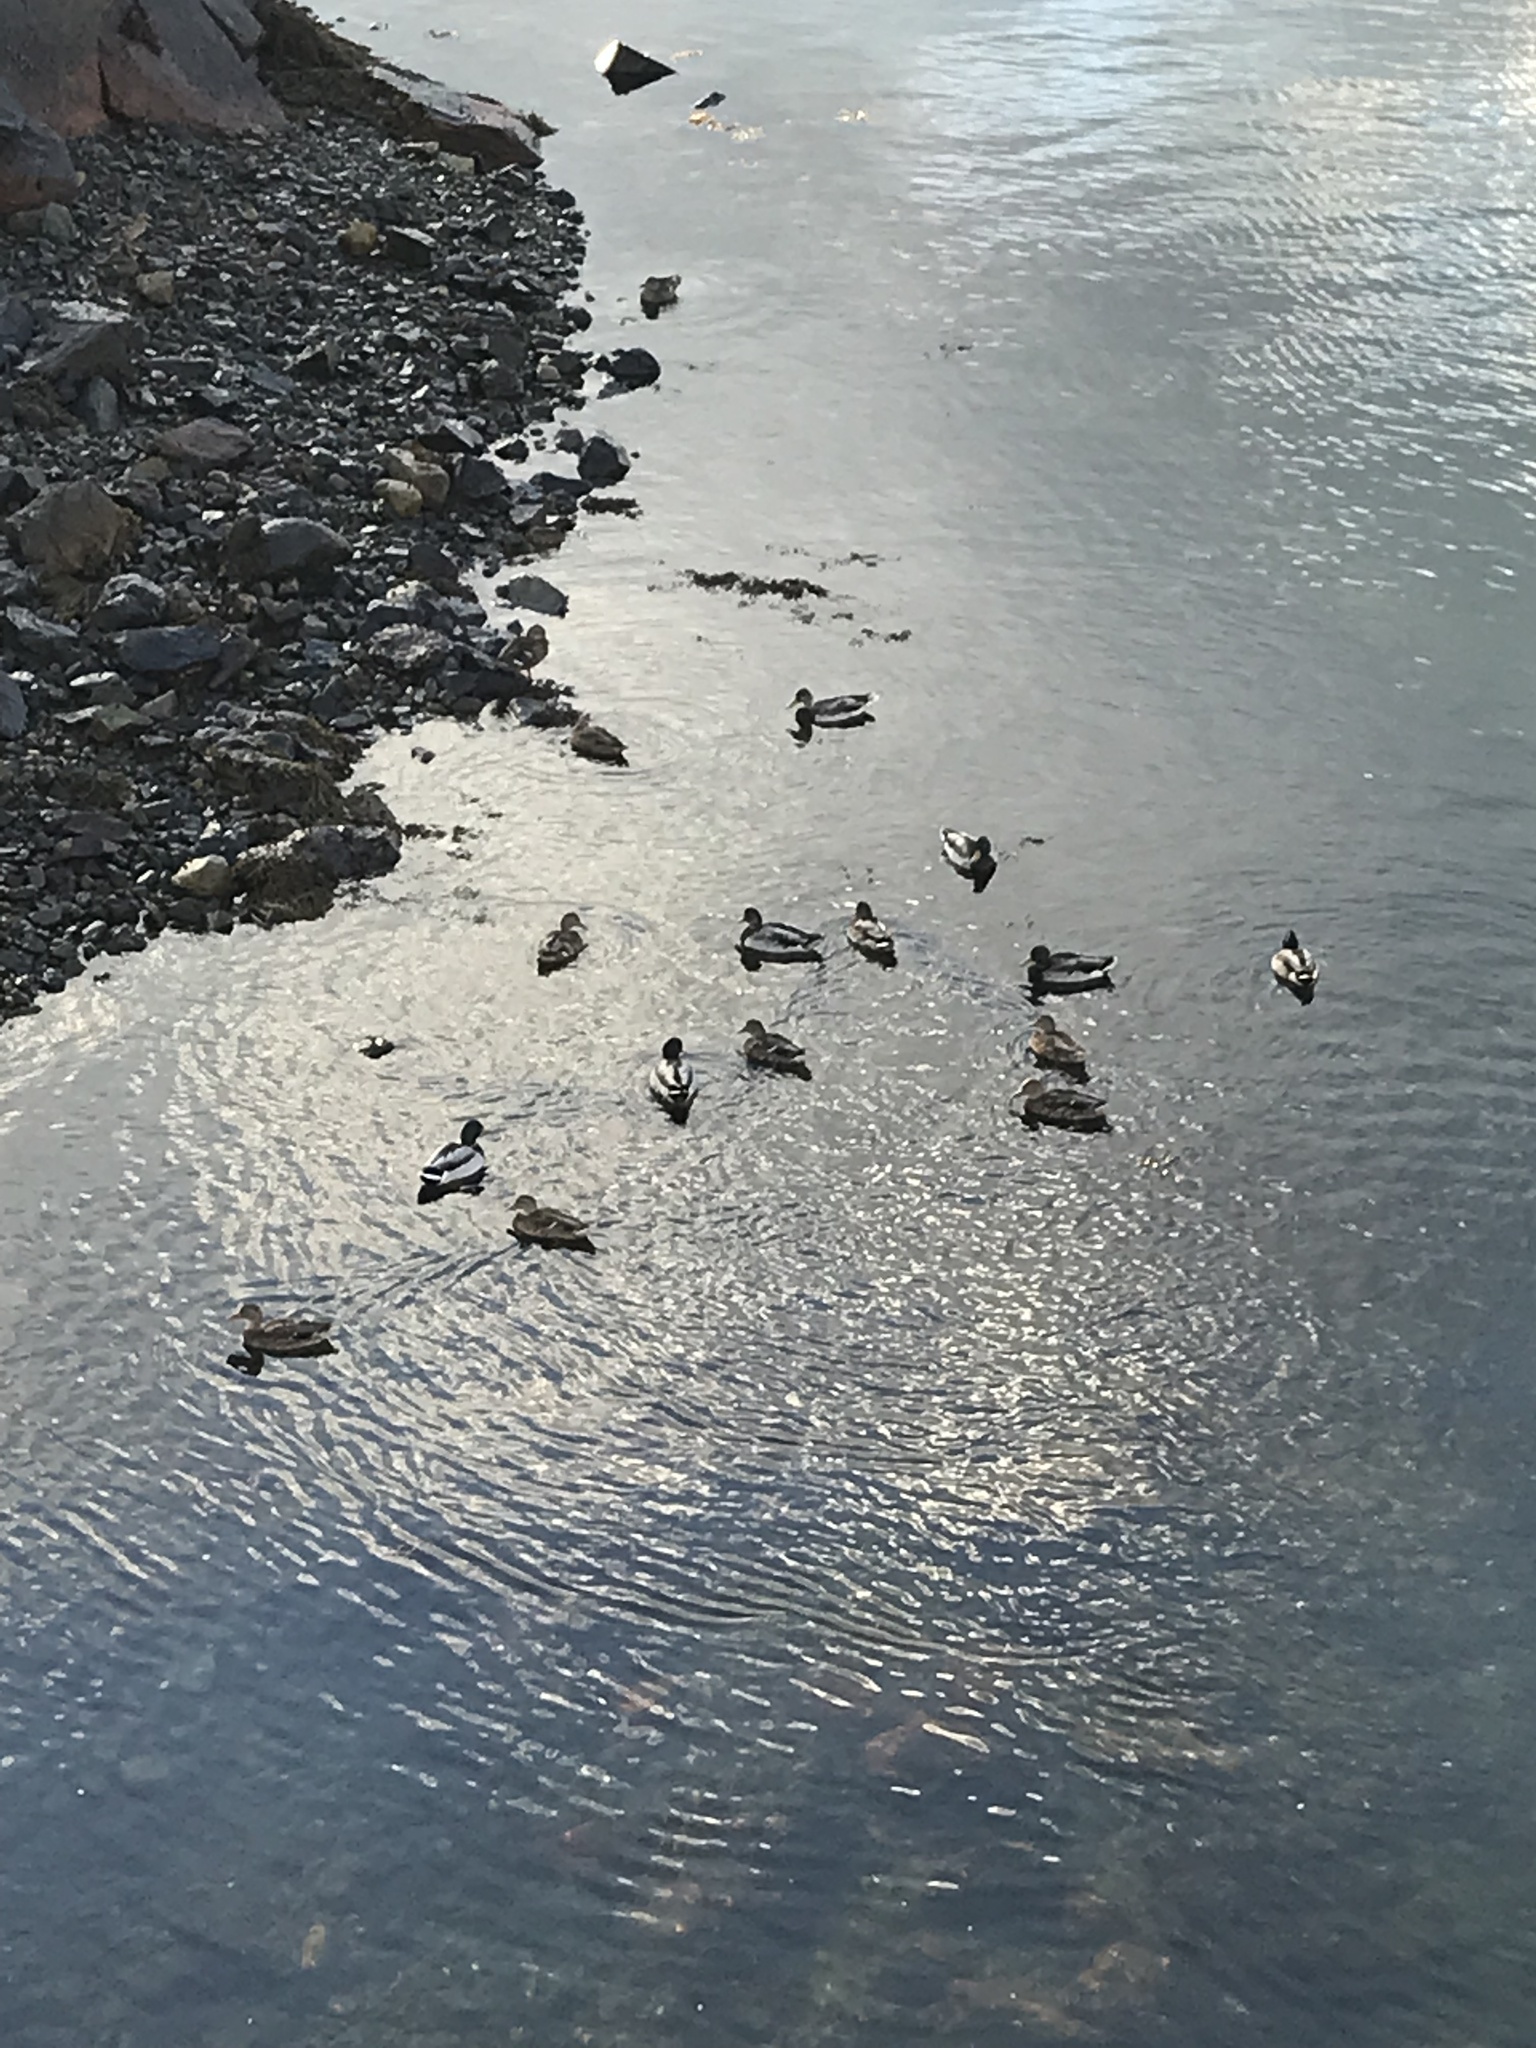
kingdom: Animalia
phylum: Chordata
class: Aves
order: Anseriformes
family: Anatidae
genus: Anas
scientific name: Anas platyrhynchos
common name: Mallard
